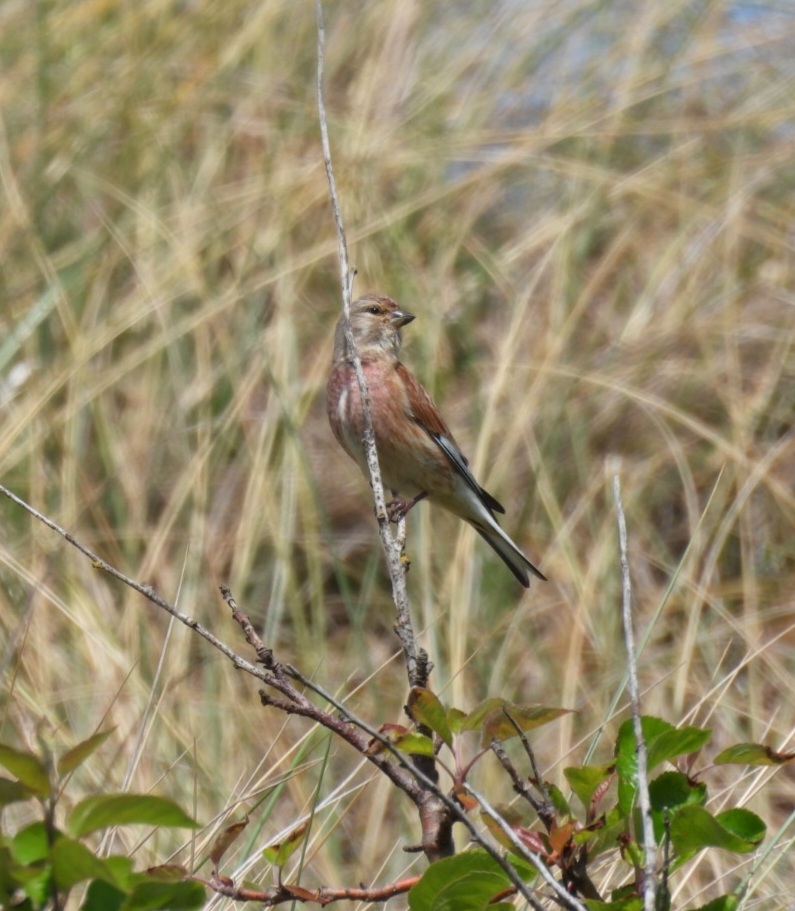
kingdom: Animalia
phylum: Chordata
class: Aves
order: Passeriformes
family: Fringillidae
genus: Linaria
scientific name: Linaria cannabina
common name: Common linnet
